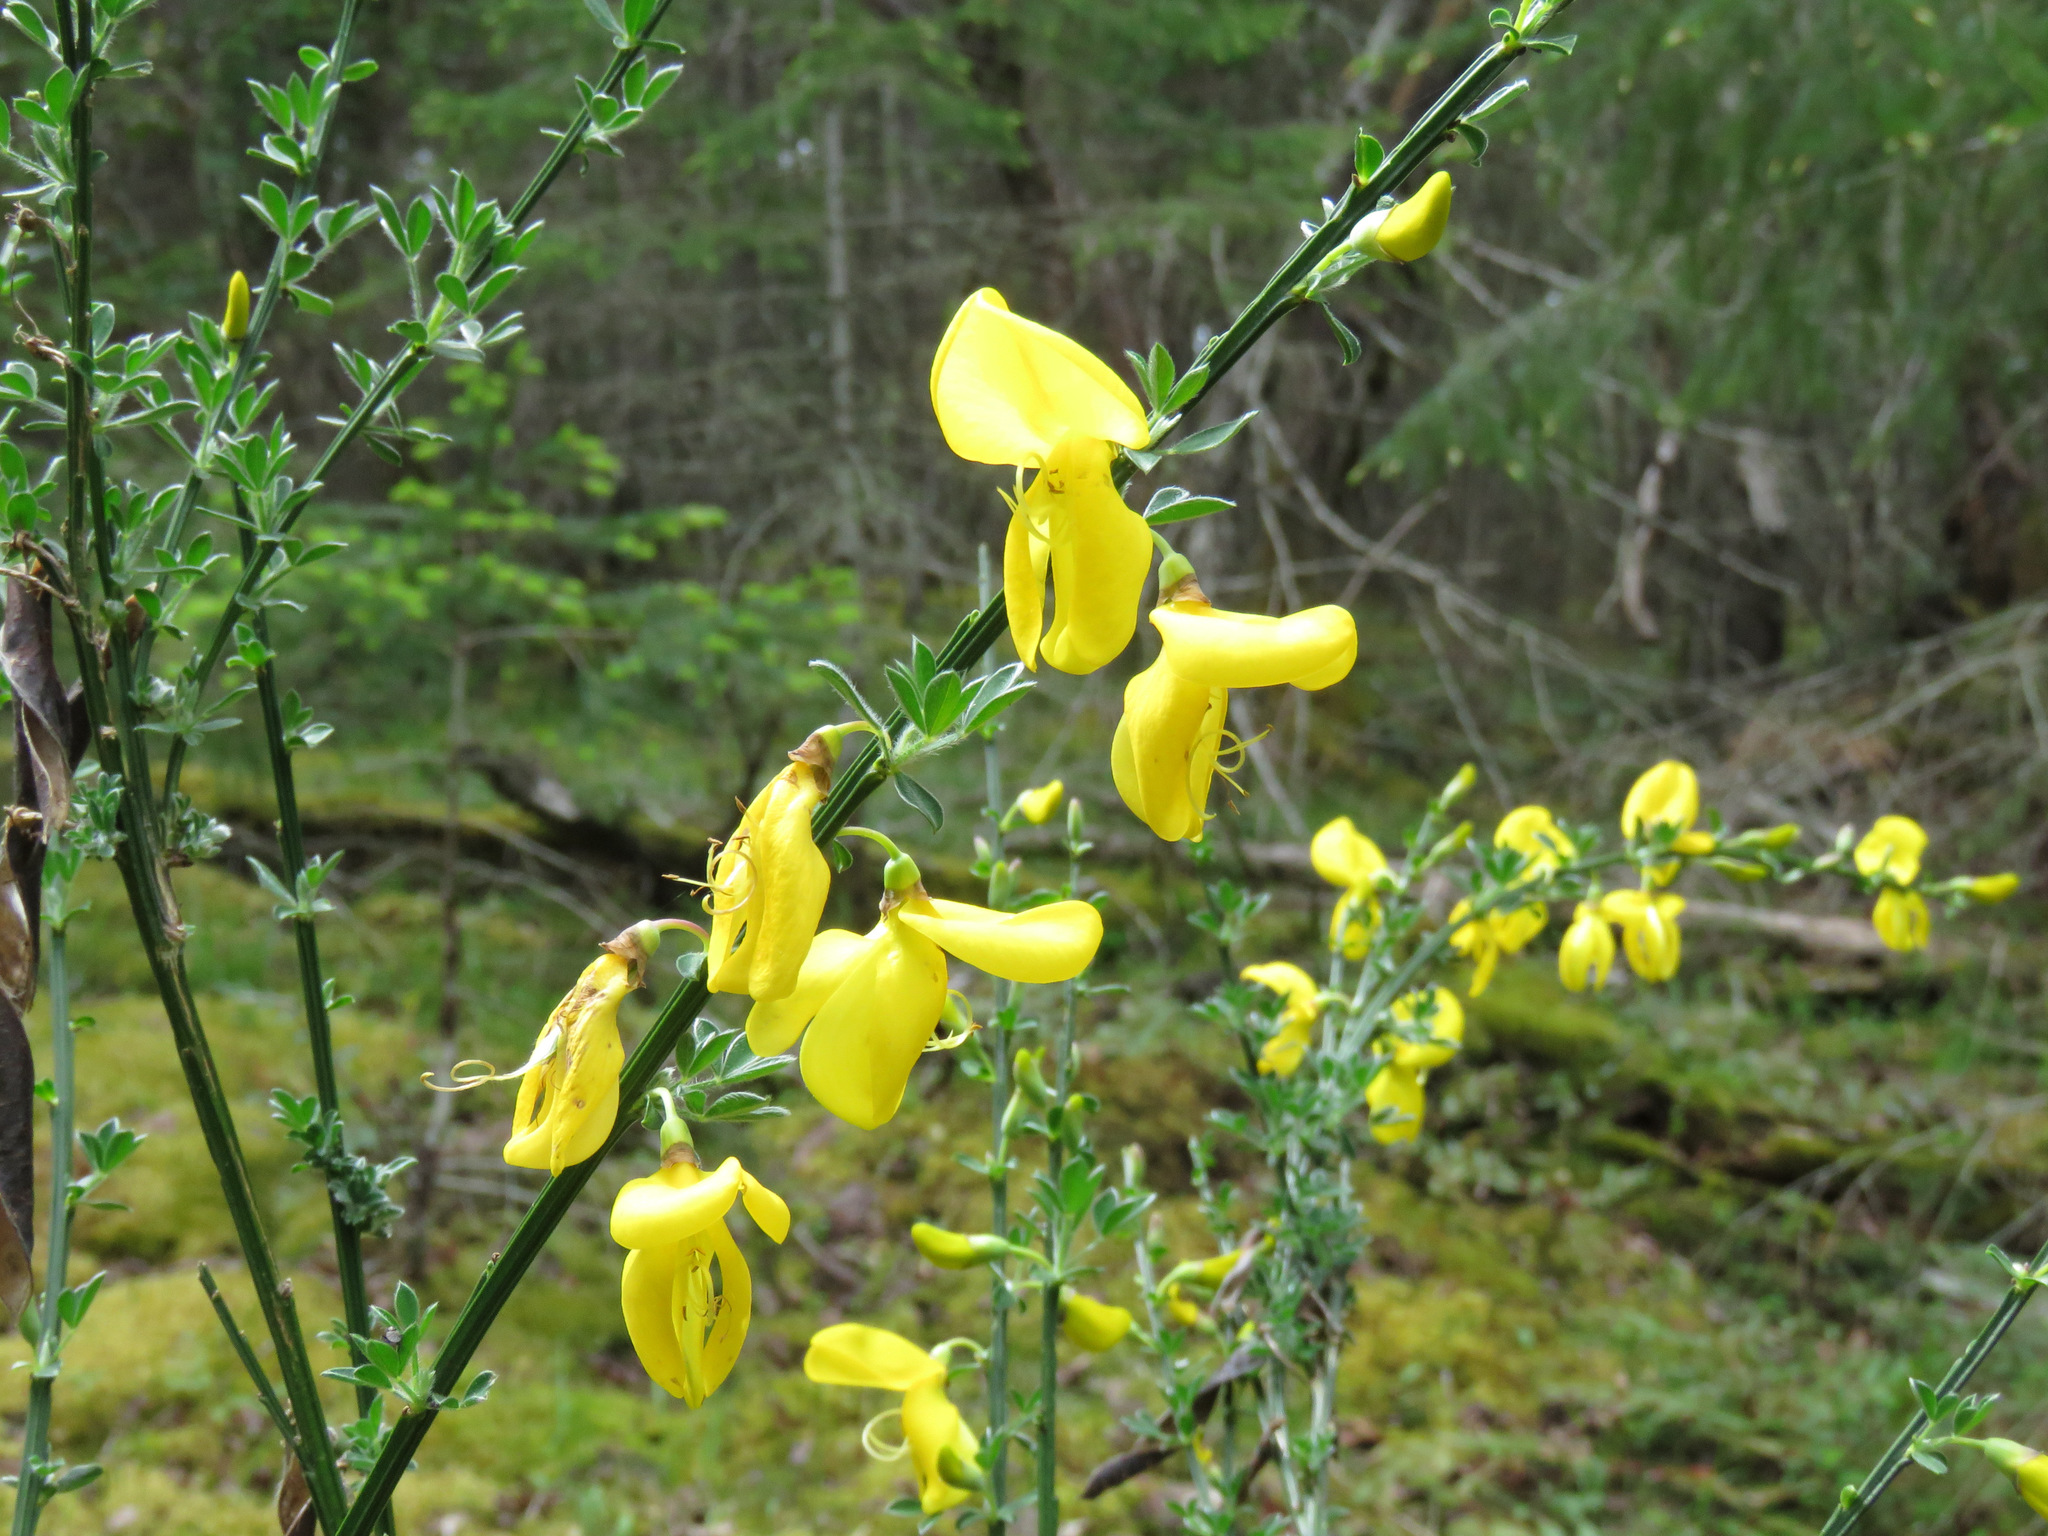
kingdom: Plantae
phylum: Tracheophyta
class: Magnoliopsida
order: Fabales
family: Fabaceae
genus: Cytisus
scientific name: Cytisus scoparius
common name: Scotch broom
